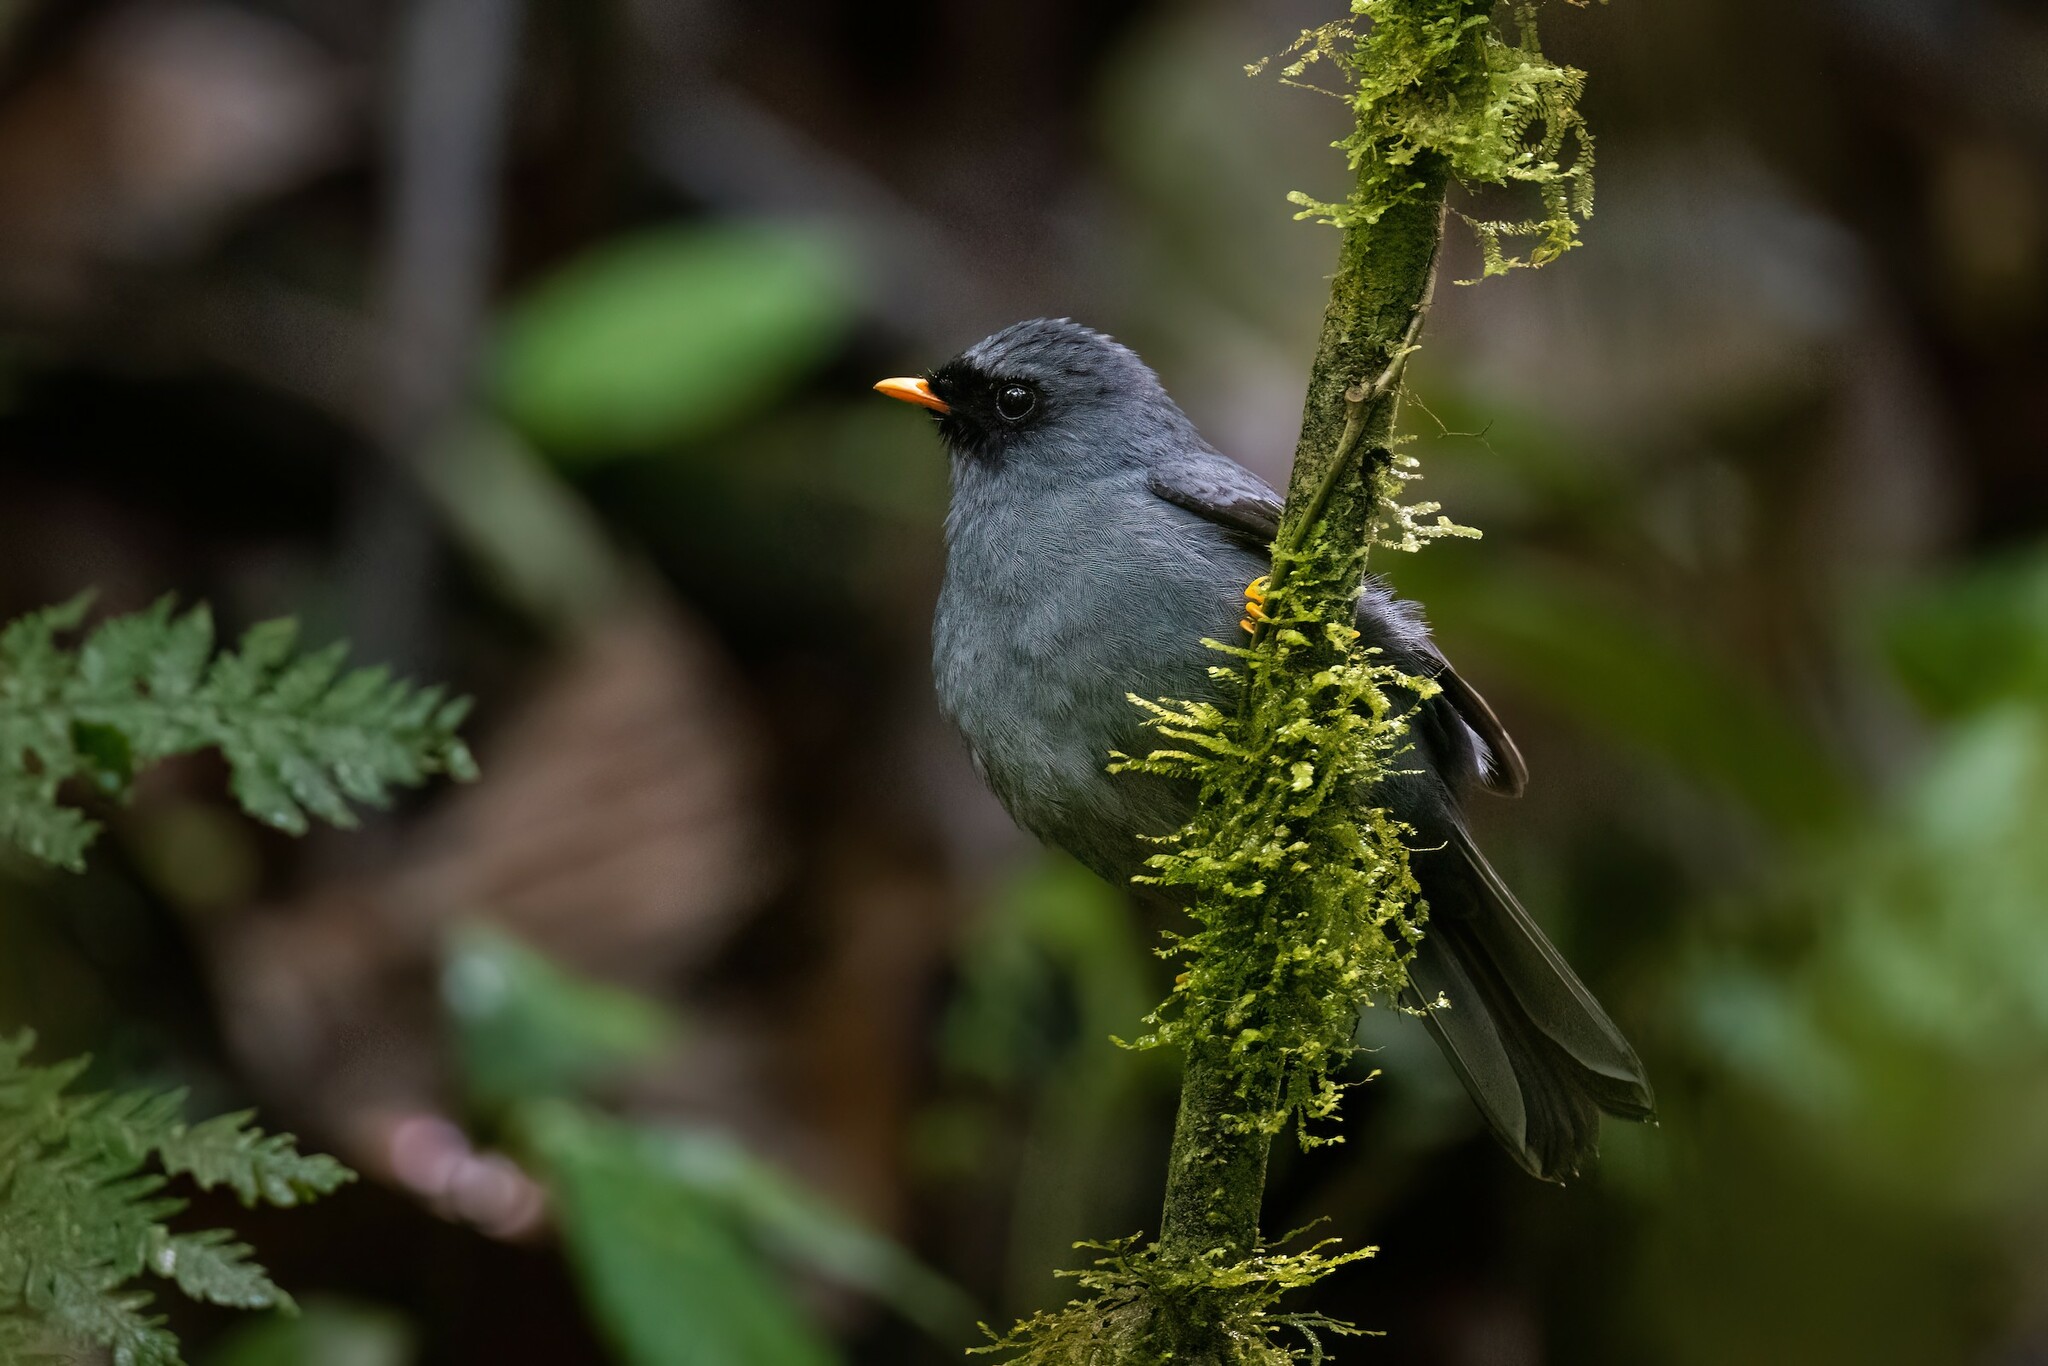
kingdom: Animalia
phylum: Chordata
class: Aves
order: Passeriformes
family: Turdidae
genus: Myadestes
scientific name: Myadestes melanops
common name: Black-faced solitaire
